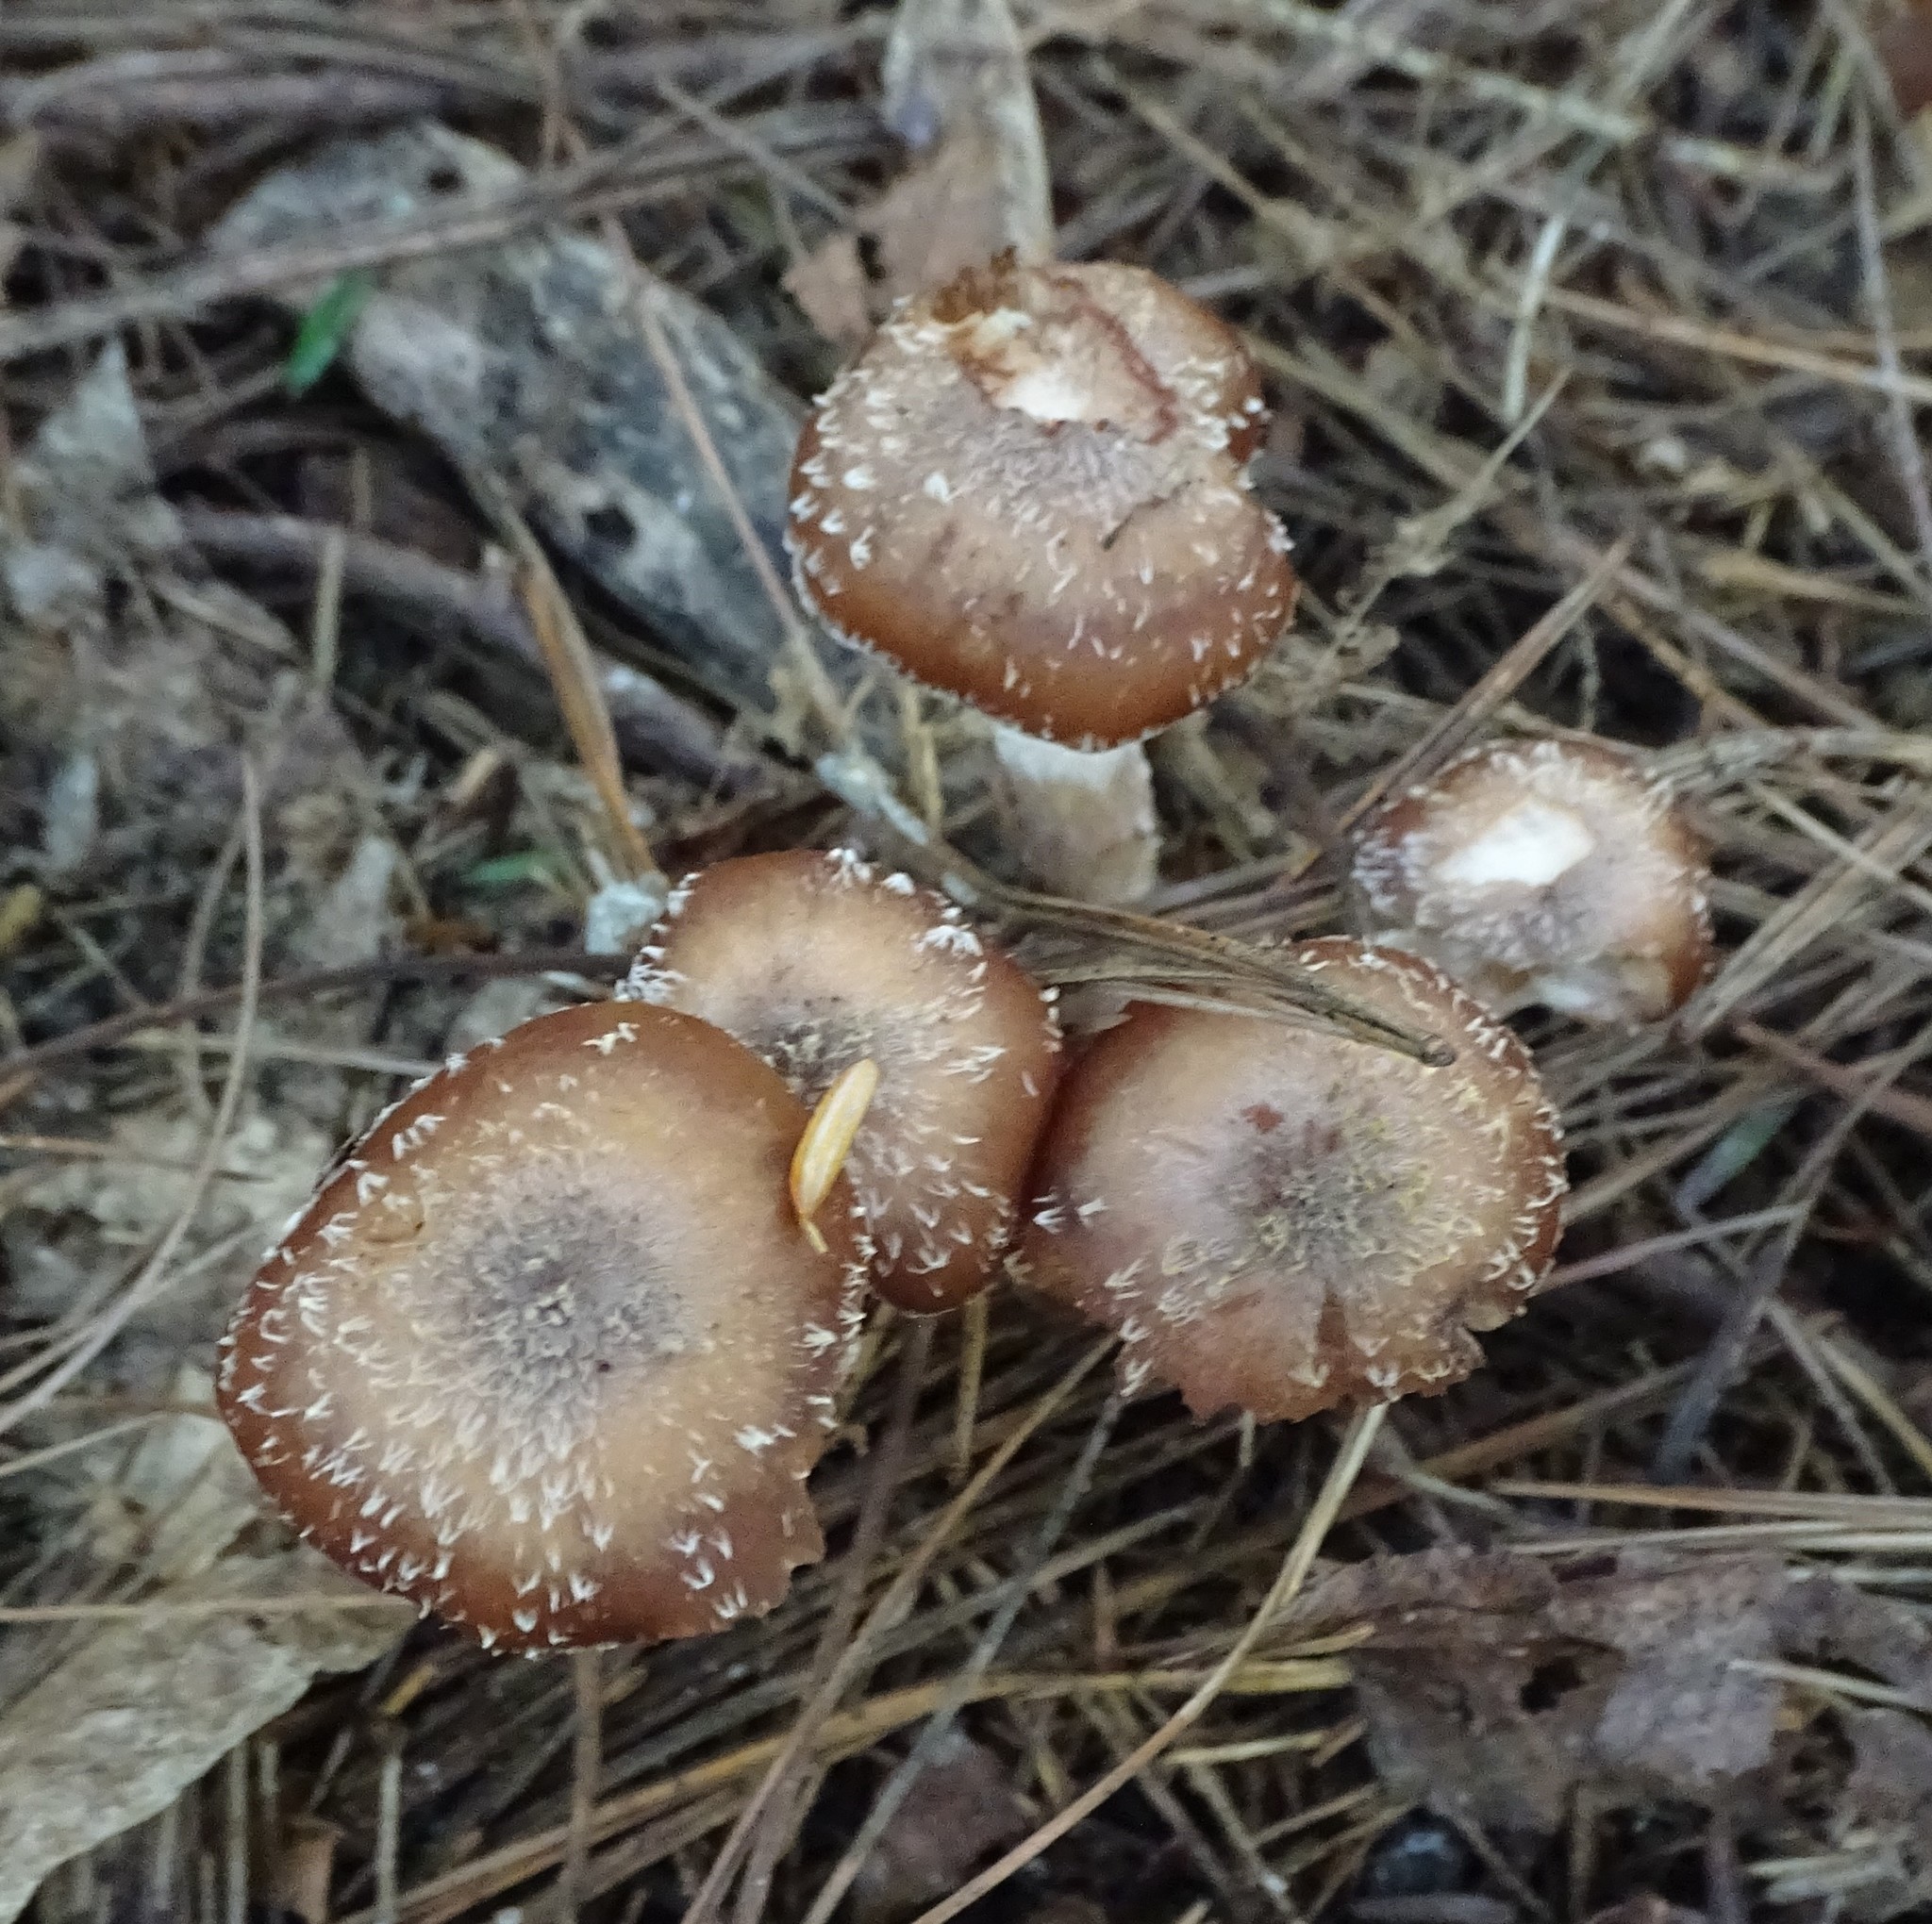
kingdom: Fungi
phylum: Basidiomycota
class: Agaricomycetes
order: Agaricales
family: Physalacriaceae
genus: Armillaria
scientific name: Armillaria gallica
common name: Bulbous honey fungus
